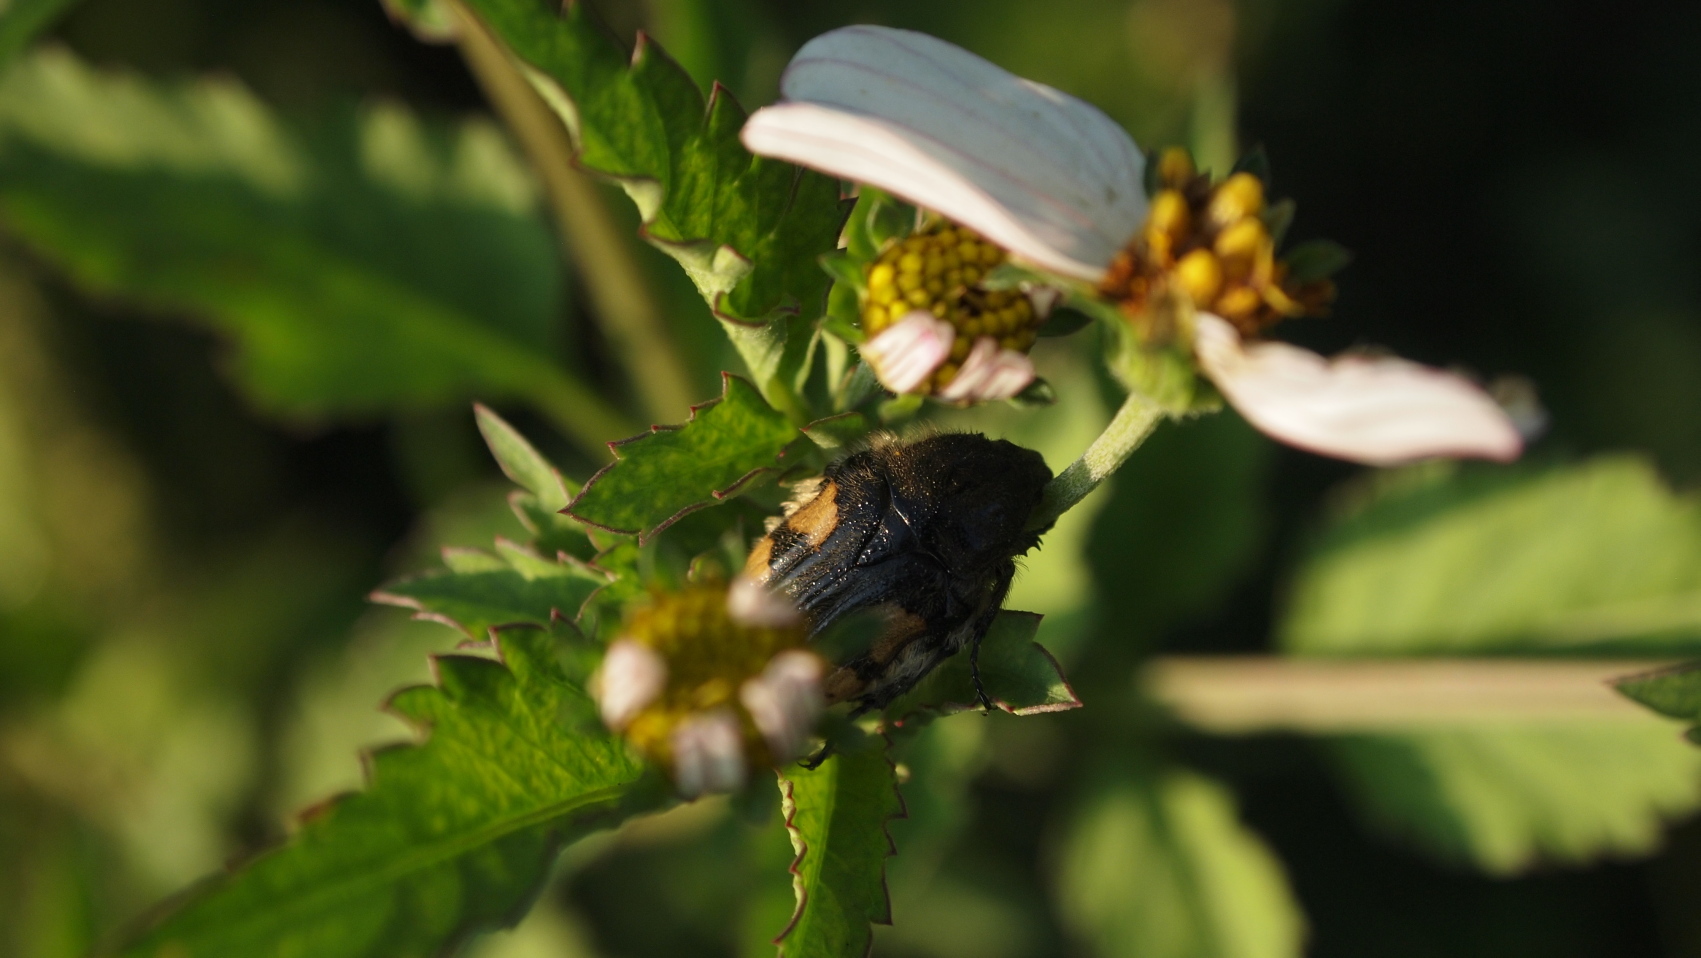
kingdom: Animalia
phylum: Arthropoda
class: Insecta
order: Coleoptera
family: Scarabaeidae
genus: Euphoria
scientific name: Euphoria basalis
